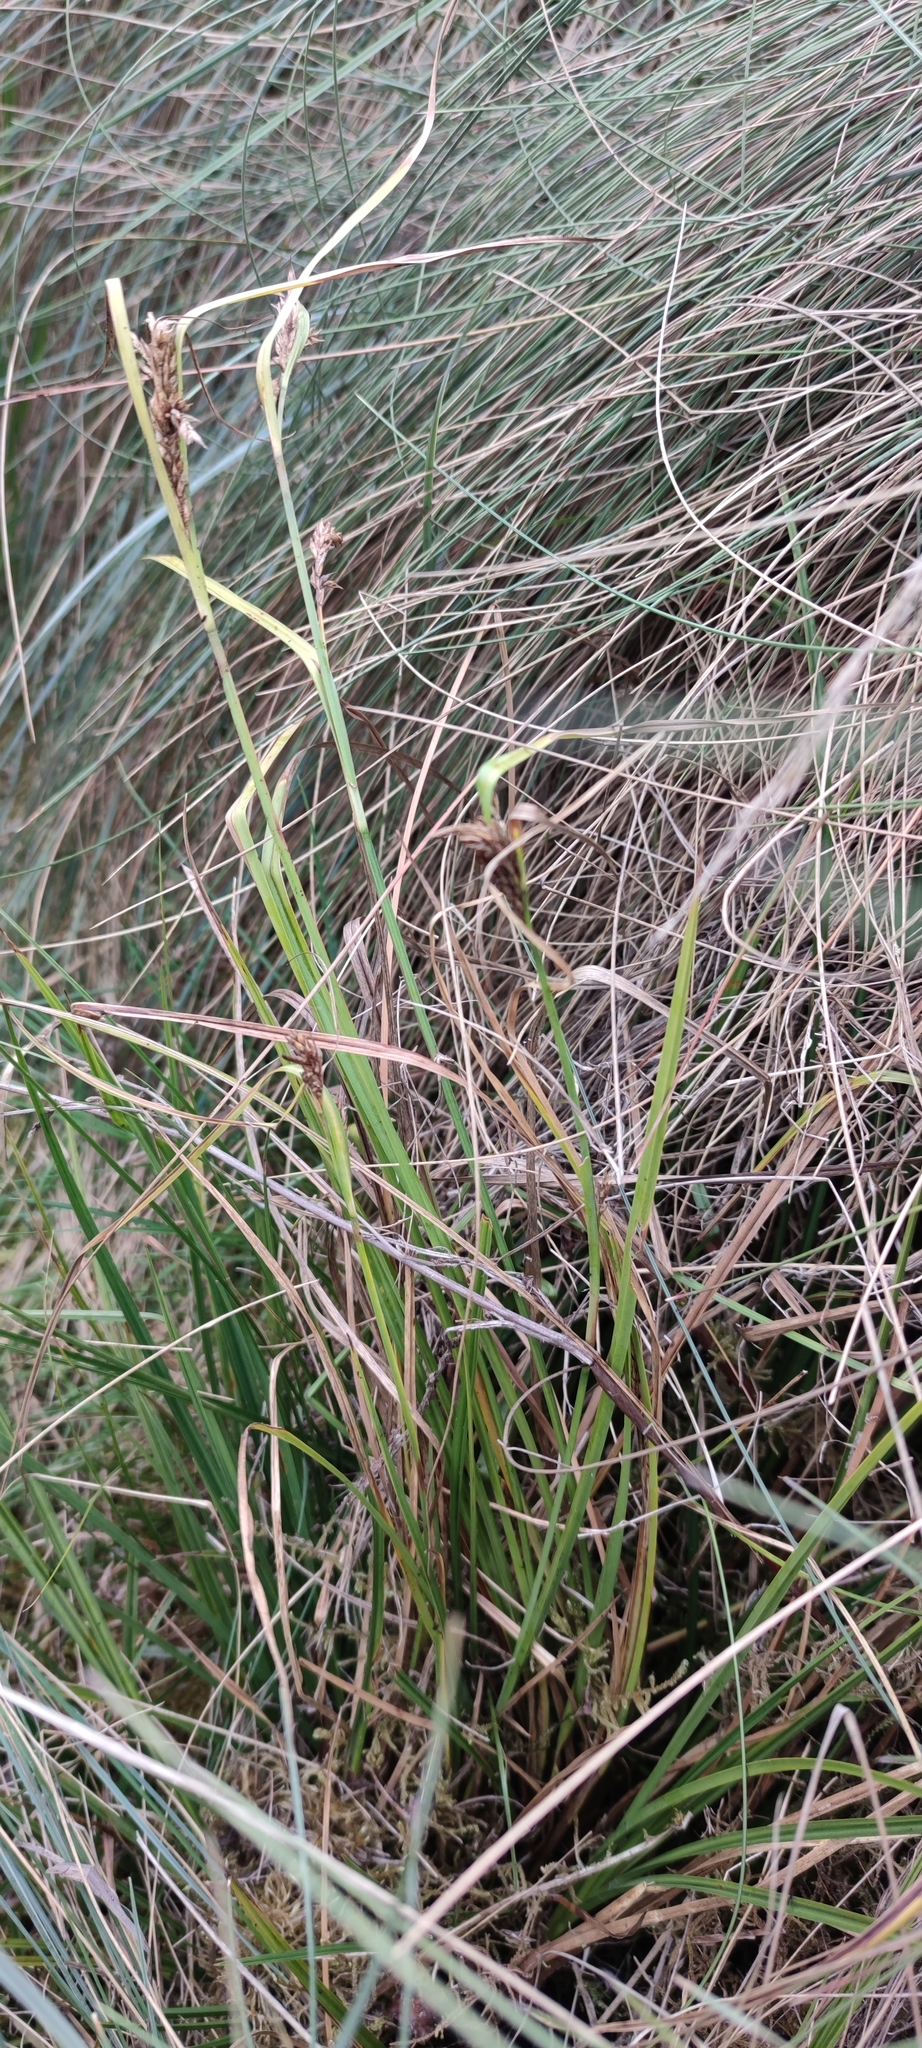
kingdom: Plantae
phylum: Tracheophyta
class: Liliopsida
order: Poales
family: Cyperaceae
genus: Carex
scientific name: Carex tamana
